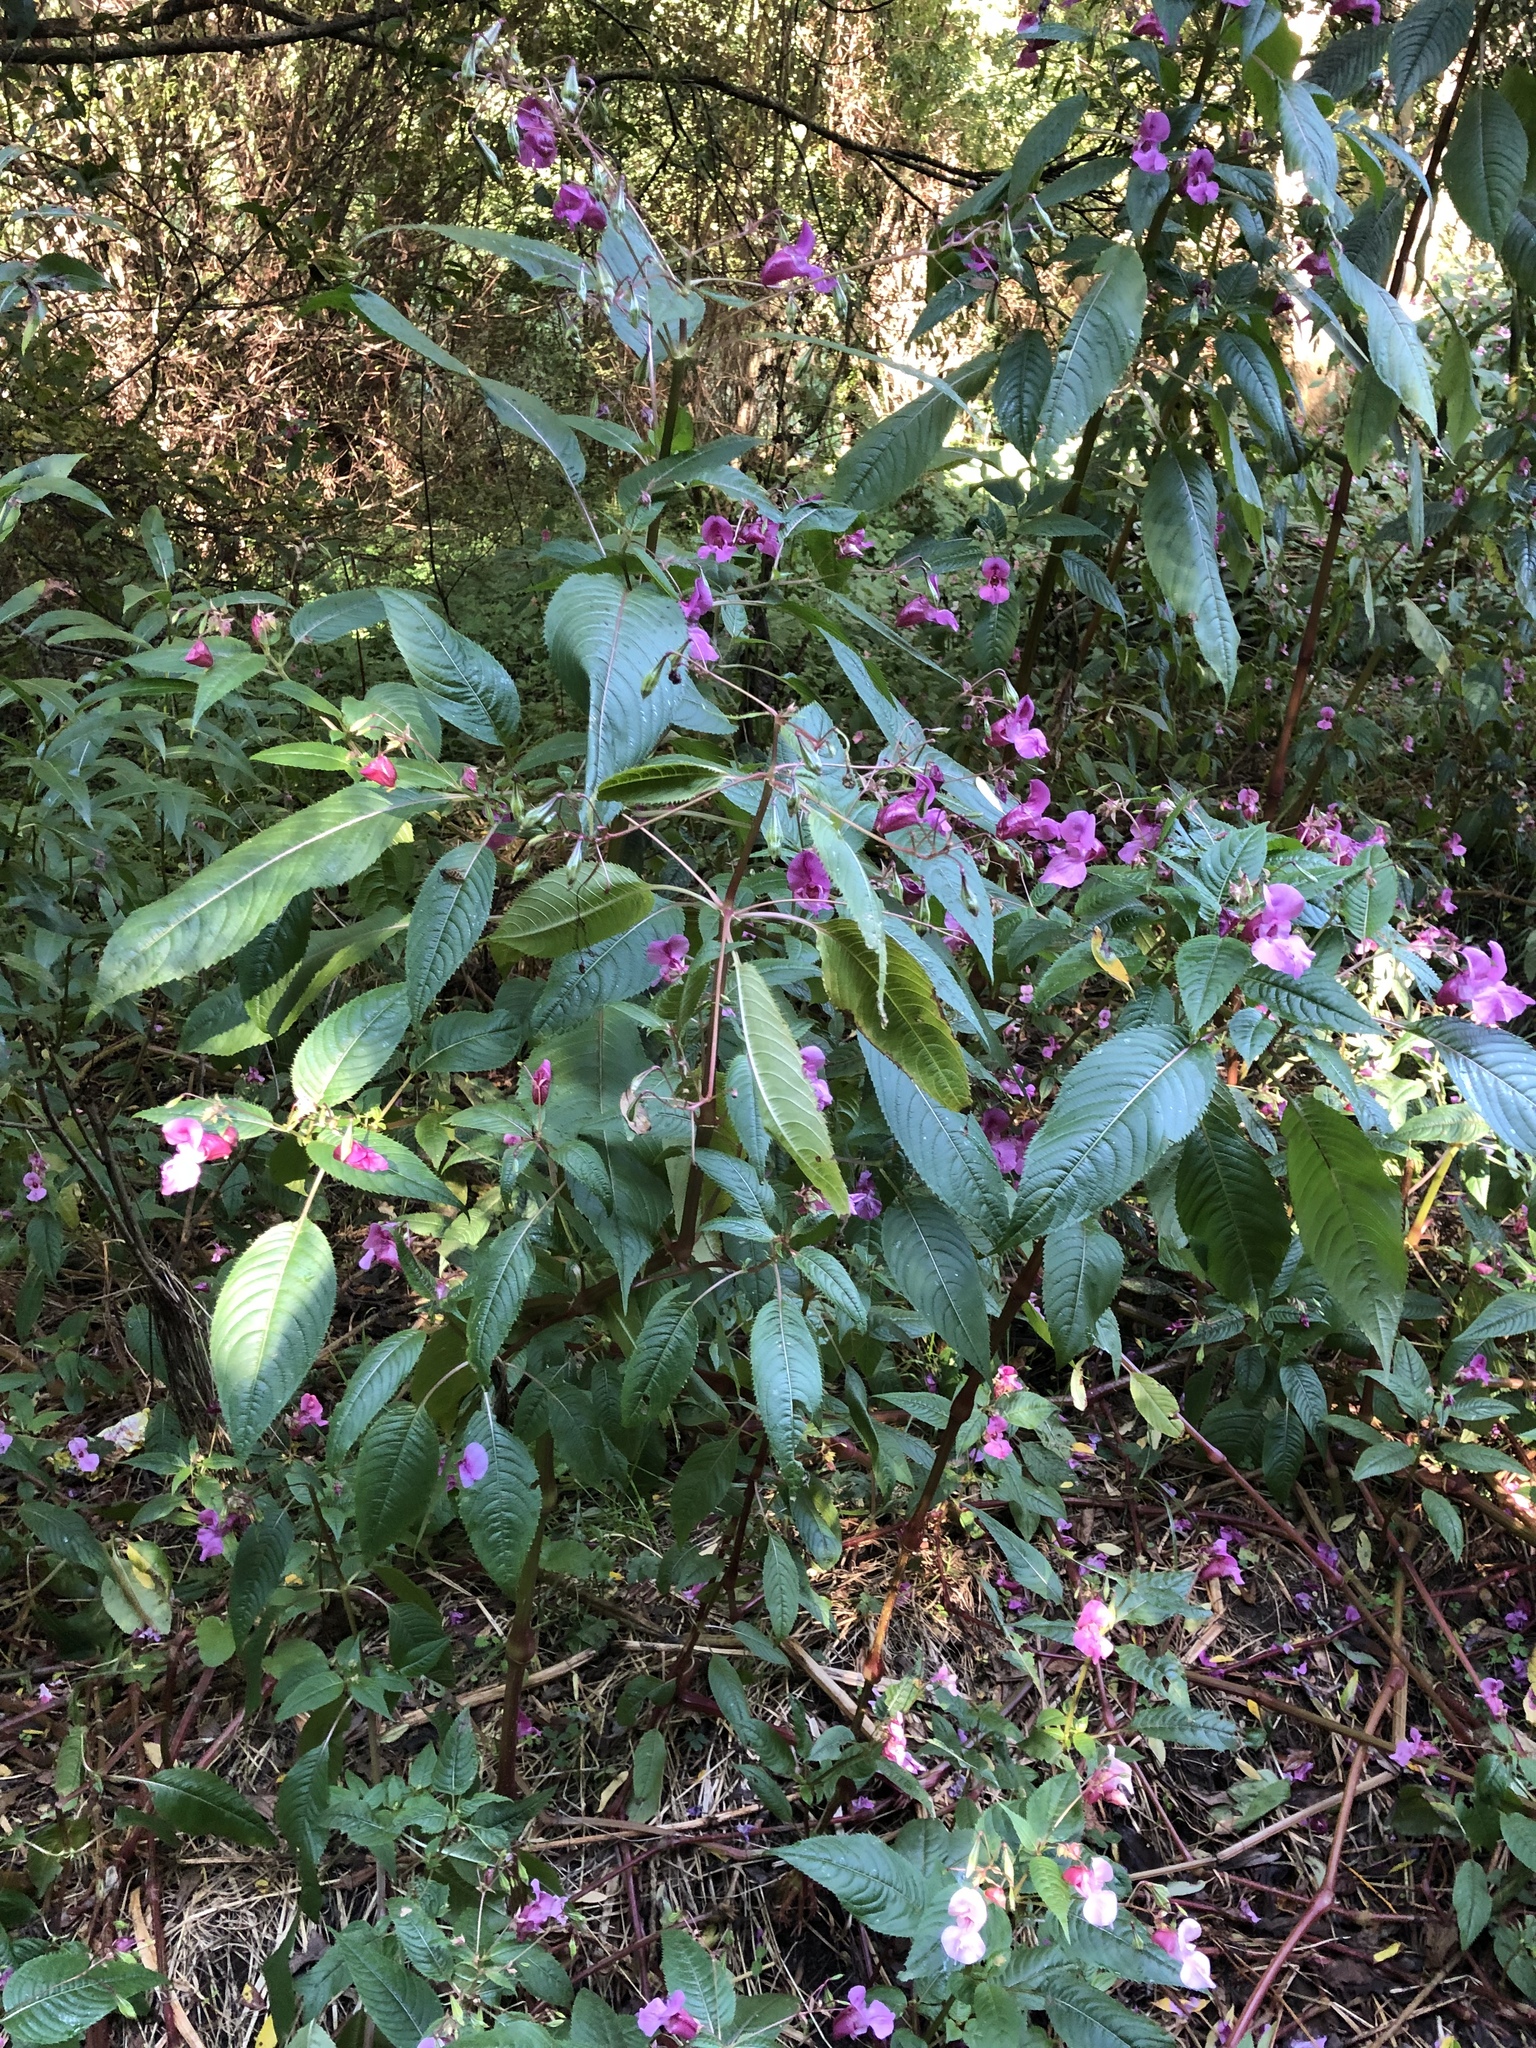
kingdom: Plantae
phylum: Tracheophyta
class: Magnoliopsida
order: Ericales
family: Balsaminaceae
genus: Impatiens
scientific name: Impatiens glandulifera
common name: Himalayan balsam
